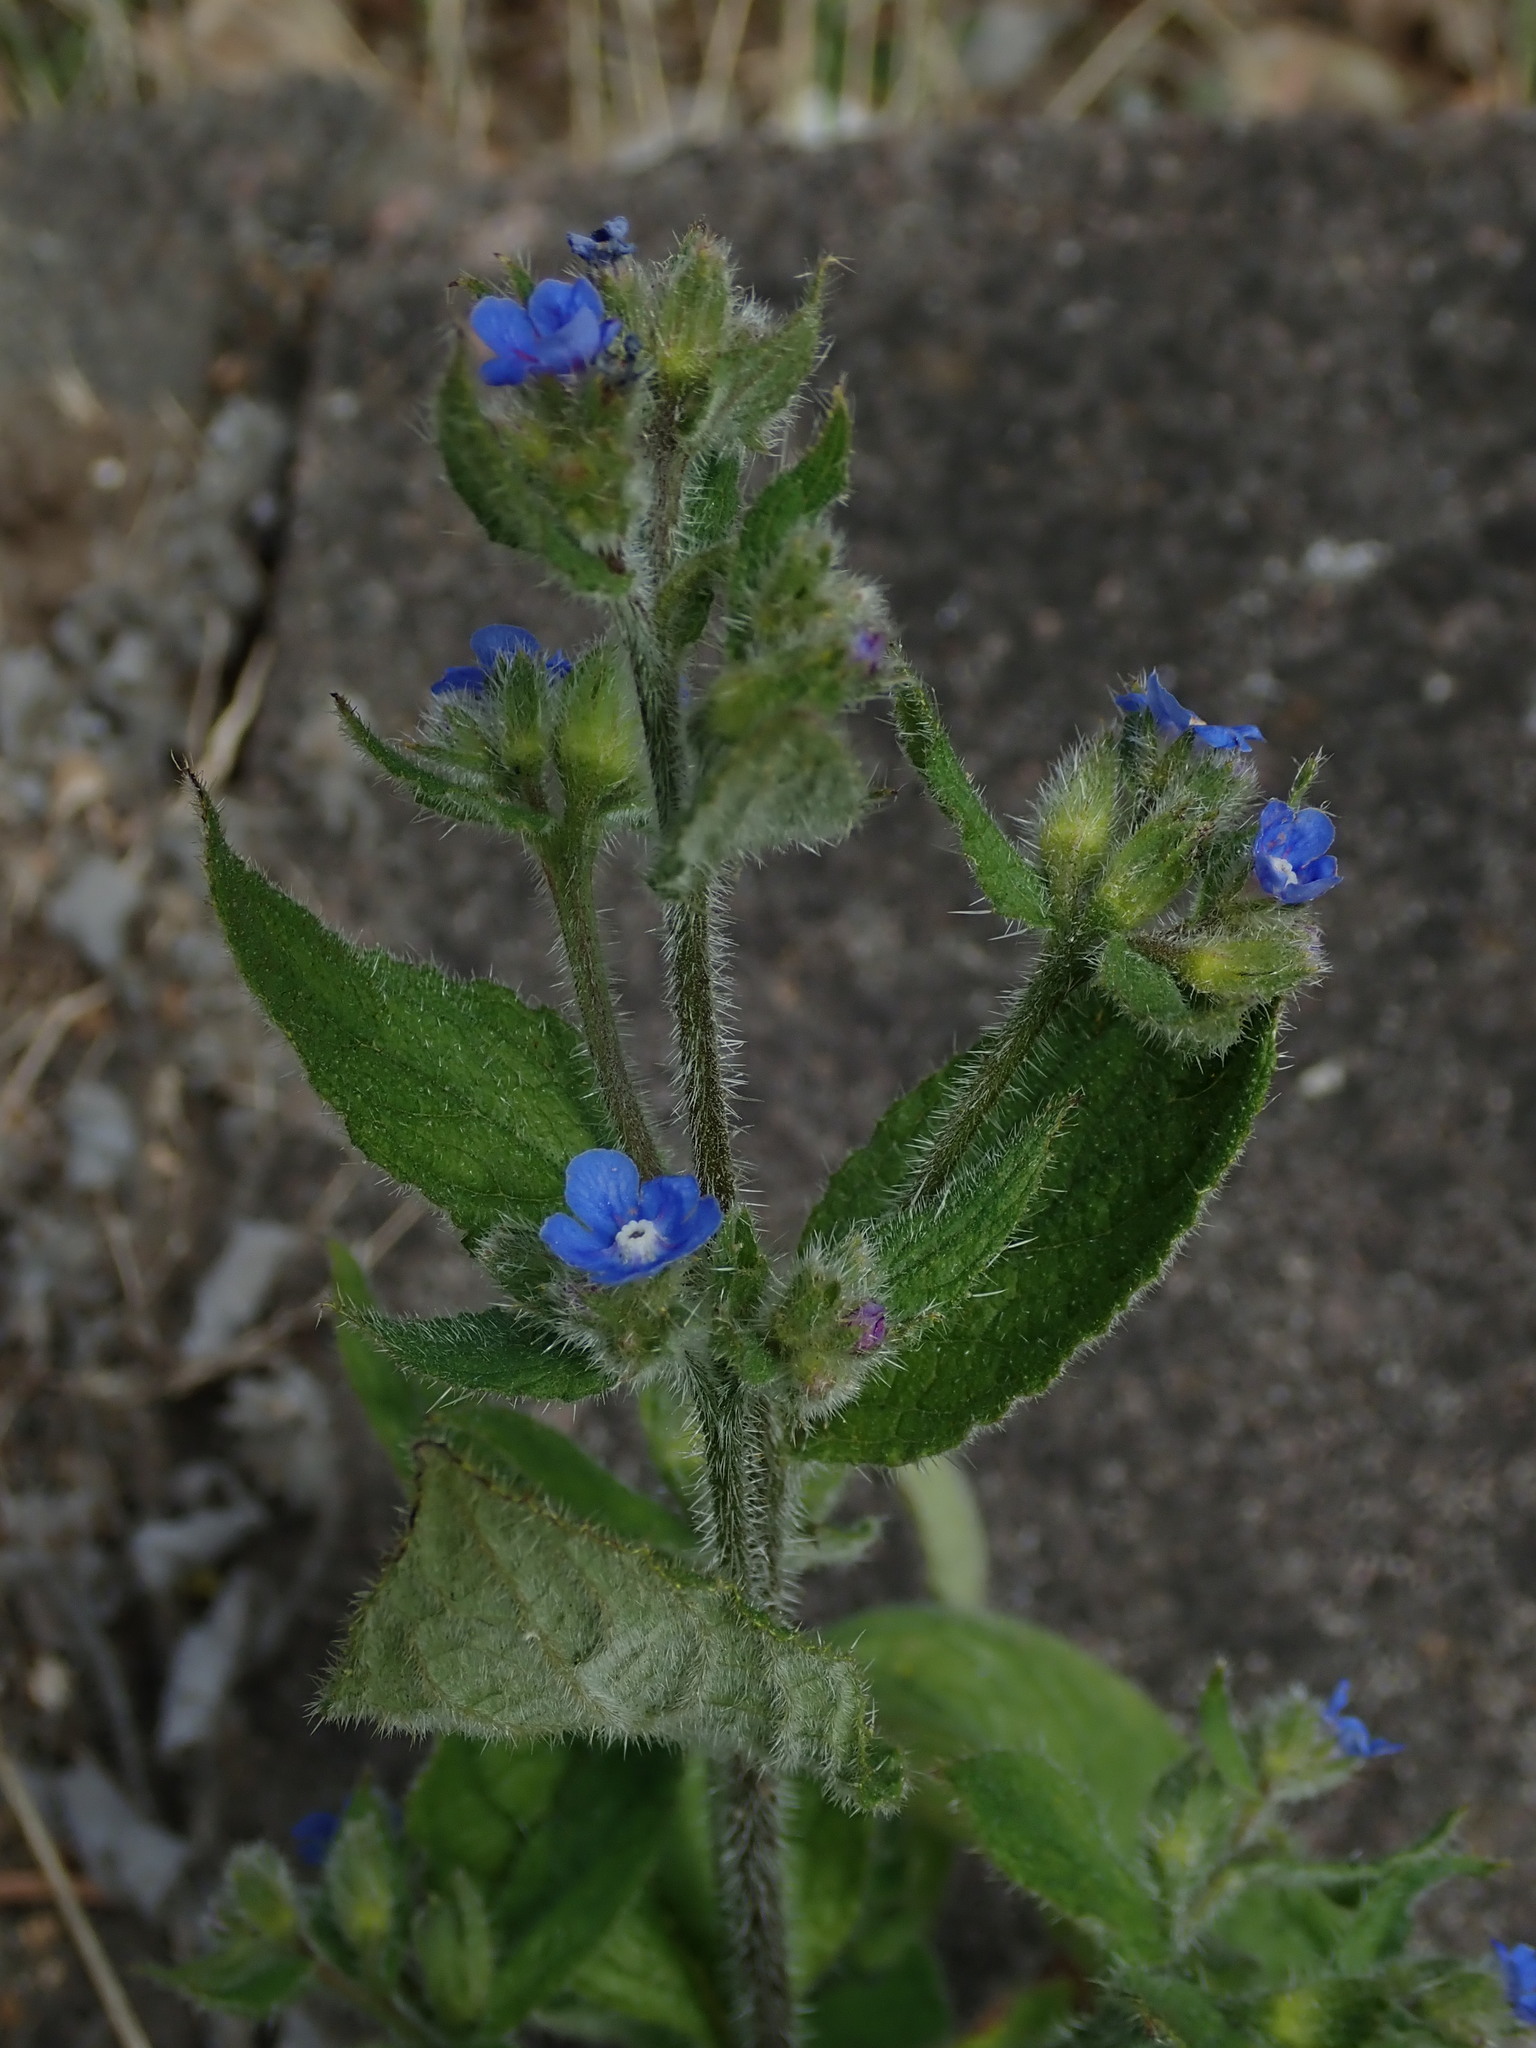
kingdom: Plantae
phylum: Tracheophyta
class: Magnoliopsida
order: Boraginales
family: Boraginaceae
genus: Pentaglottis
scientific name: Pentaglottis sempervirens
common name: Green alkanet
